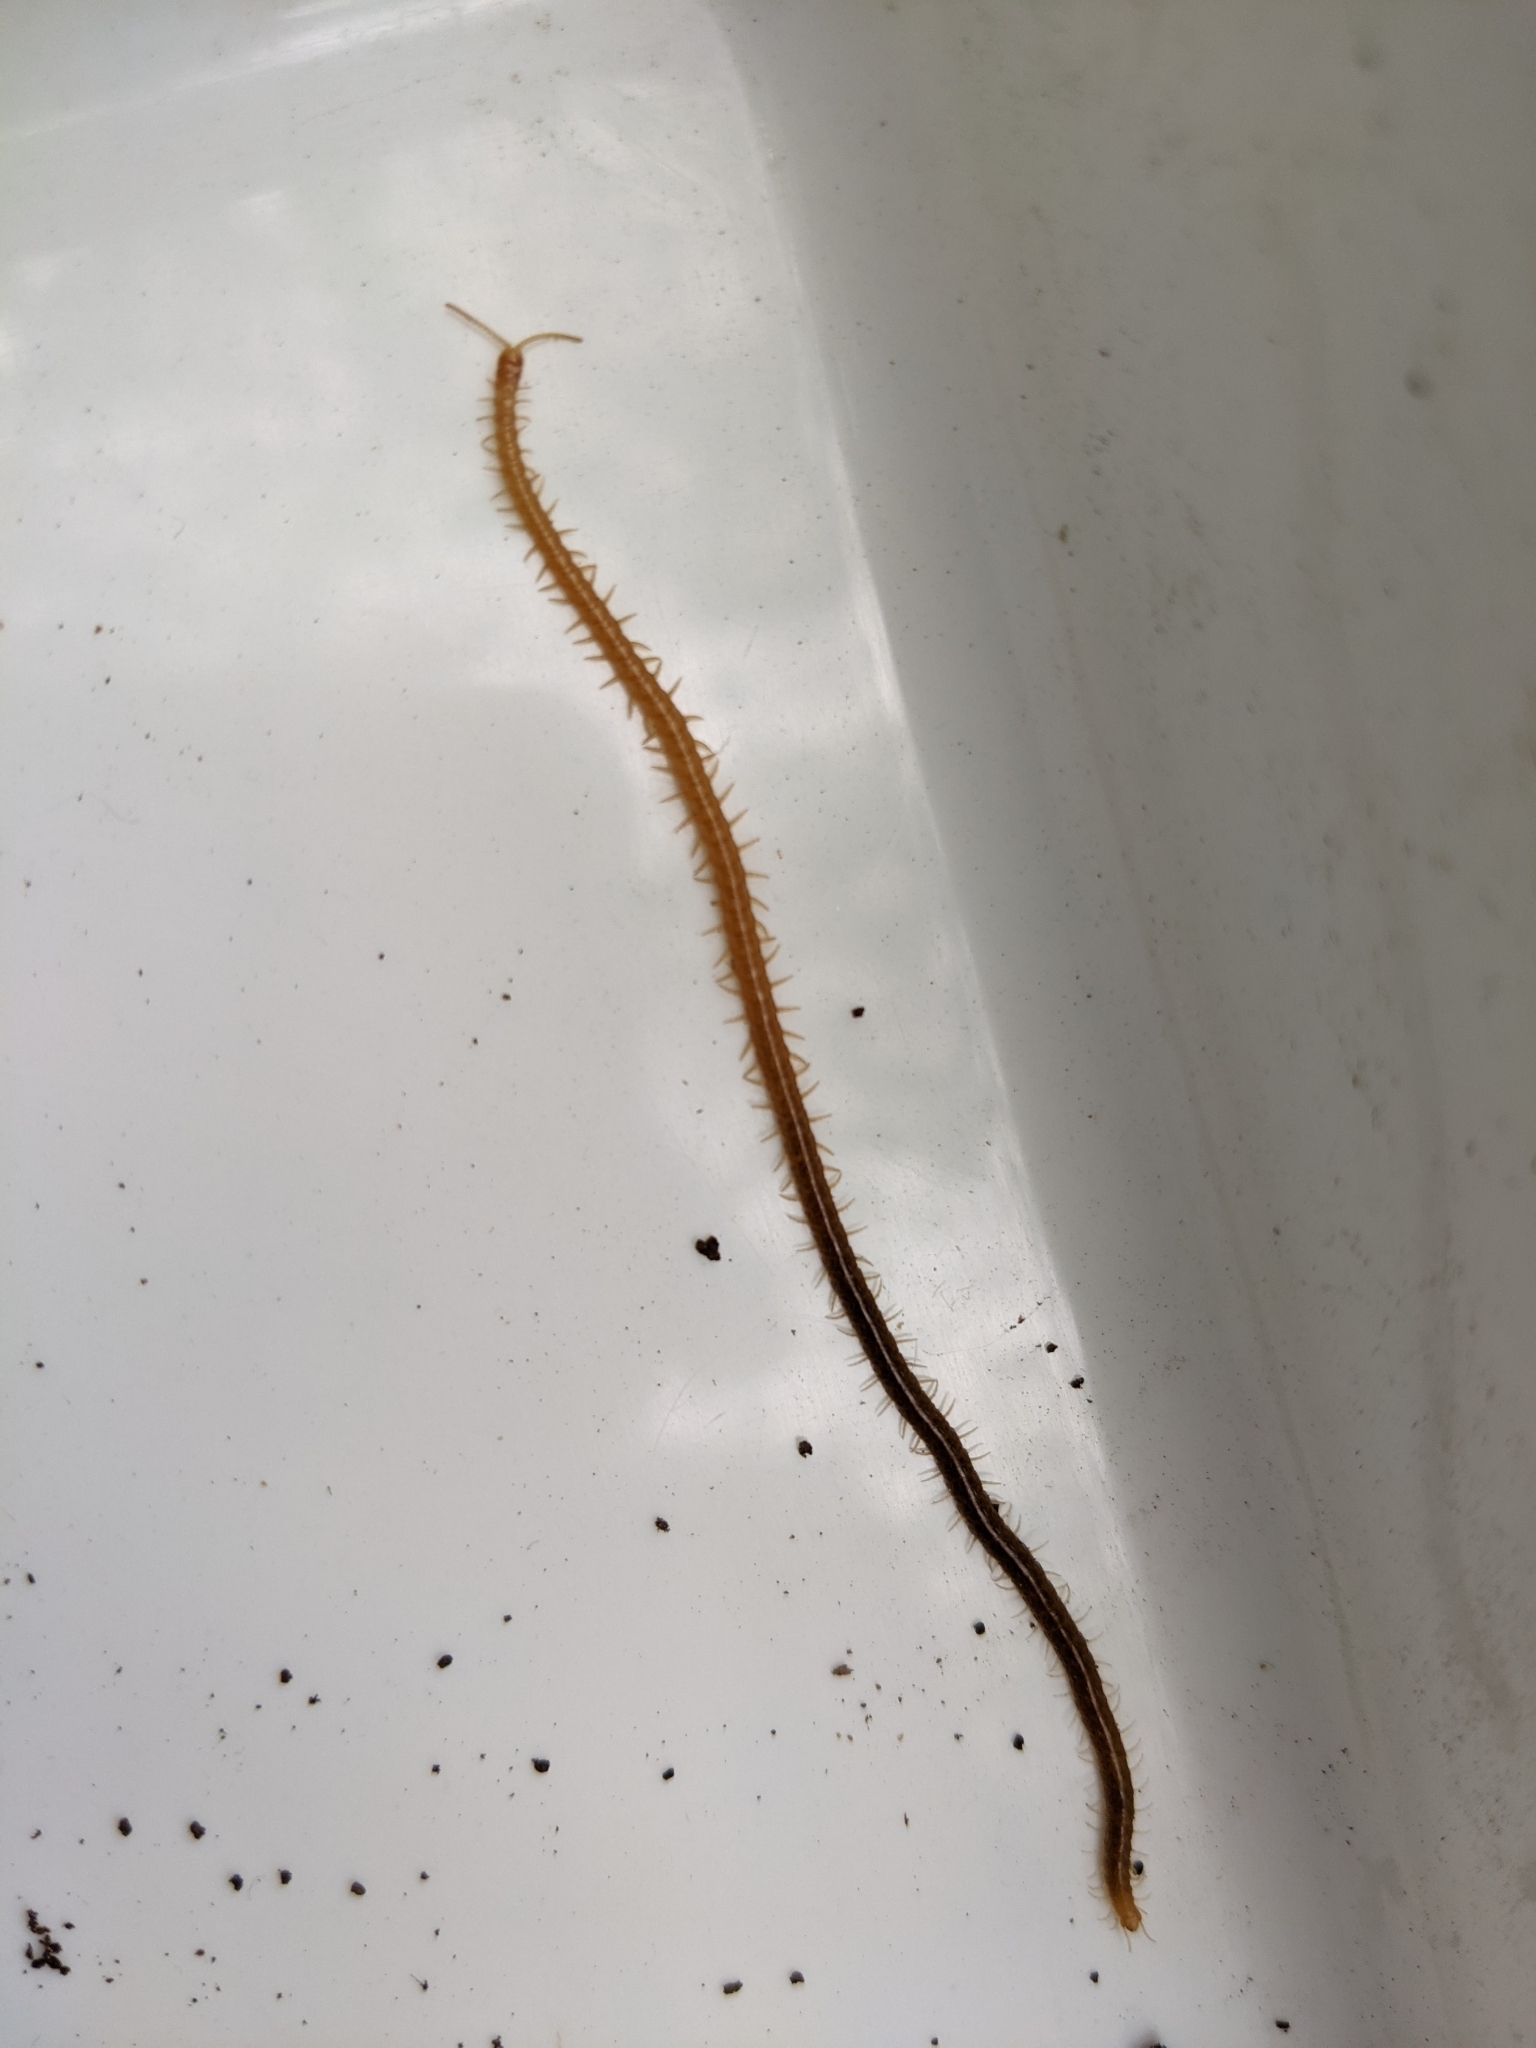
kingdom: Animalia
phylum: Arthropoda
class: Chilopoda
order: Geophilomorpha
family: Himantariidae
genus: Stigmatogaster
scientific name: Stigmatogaster subterranea
